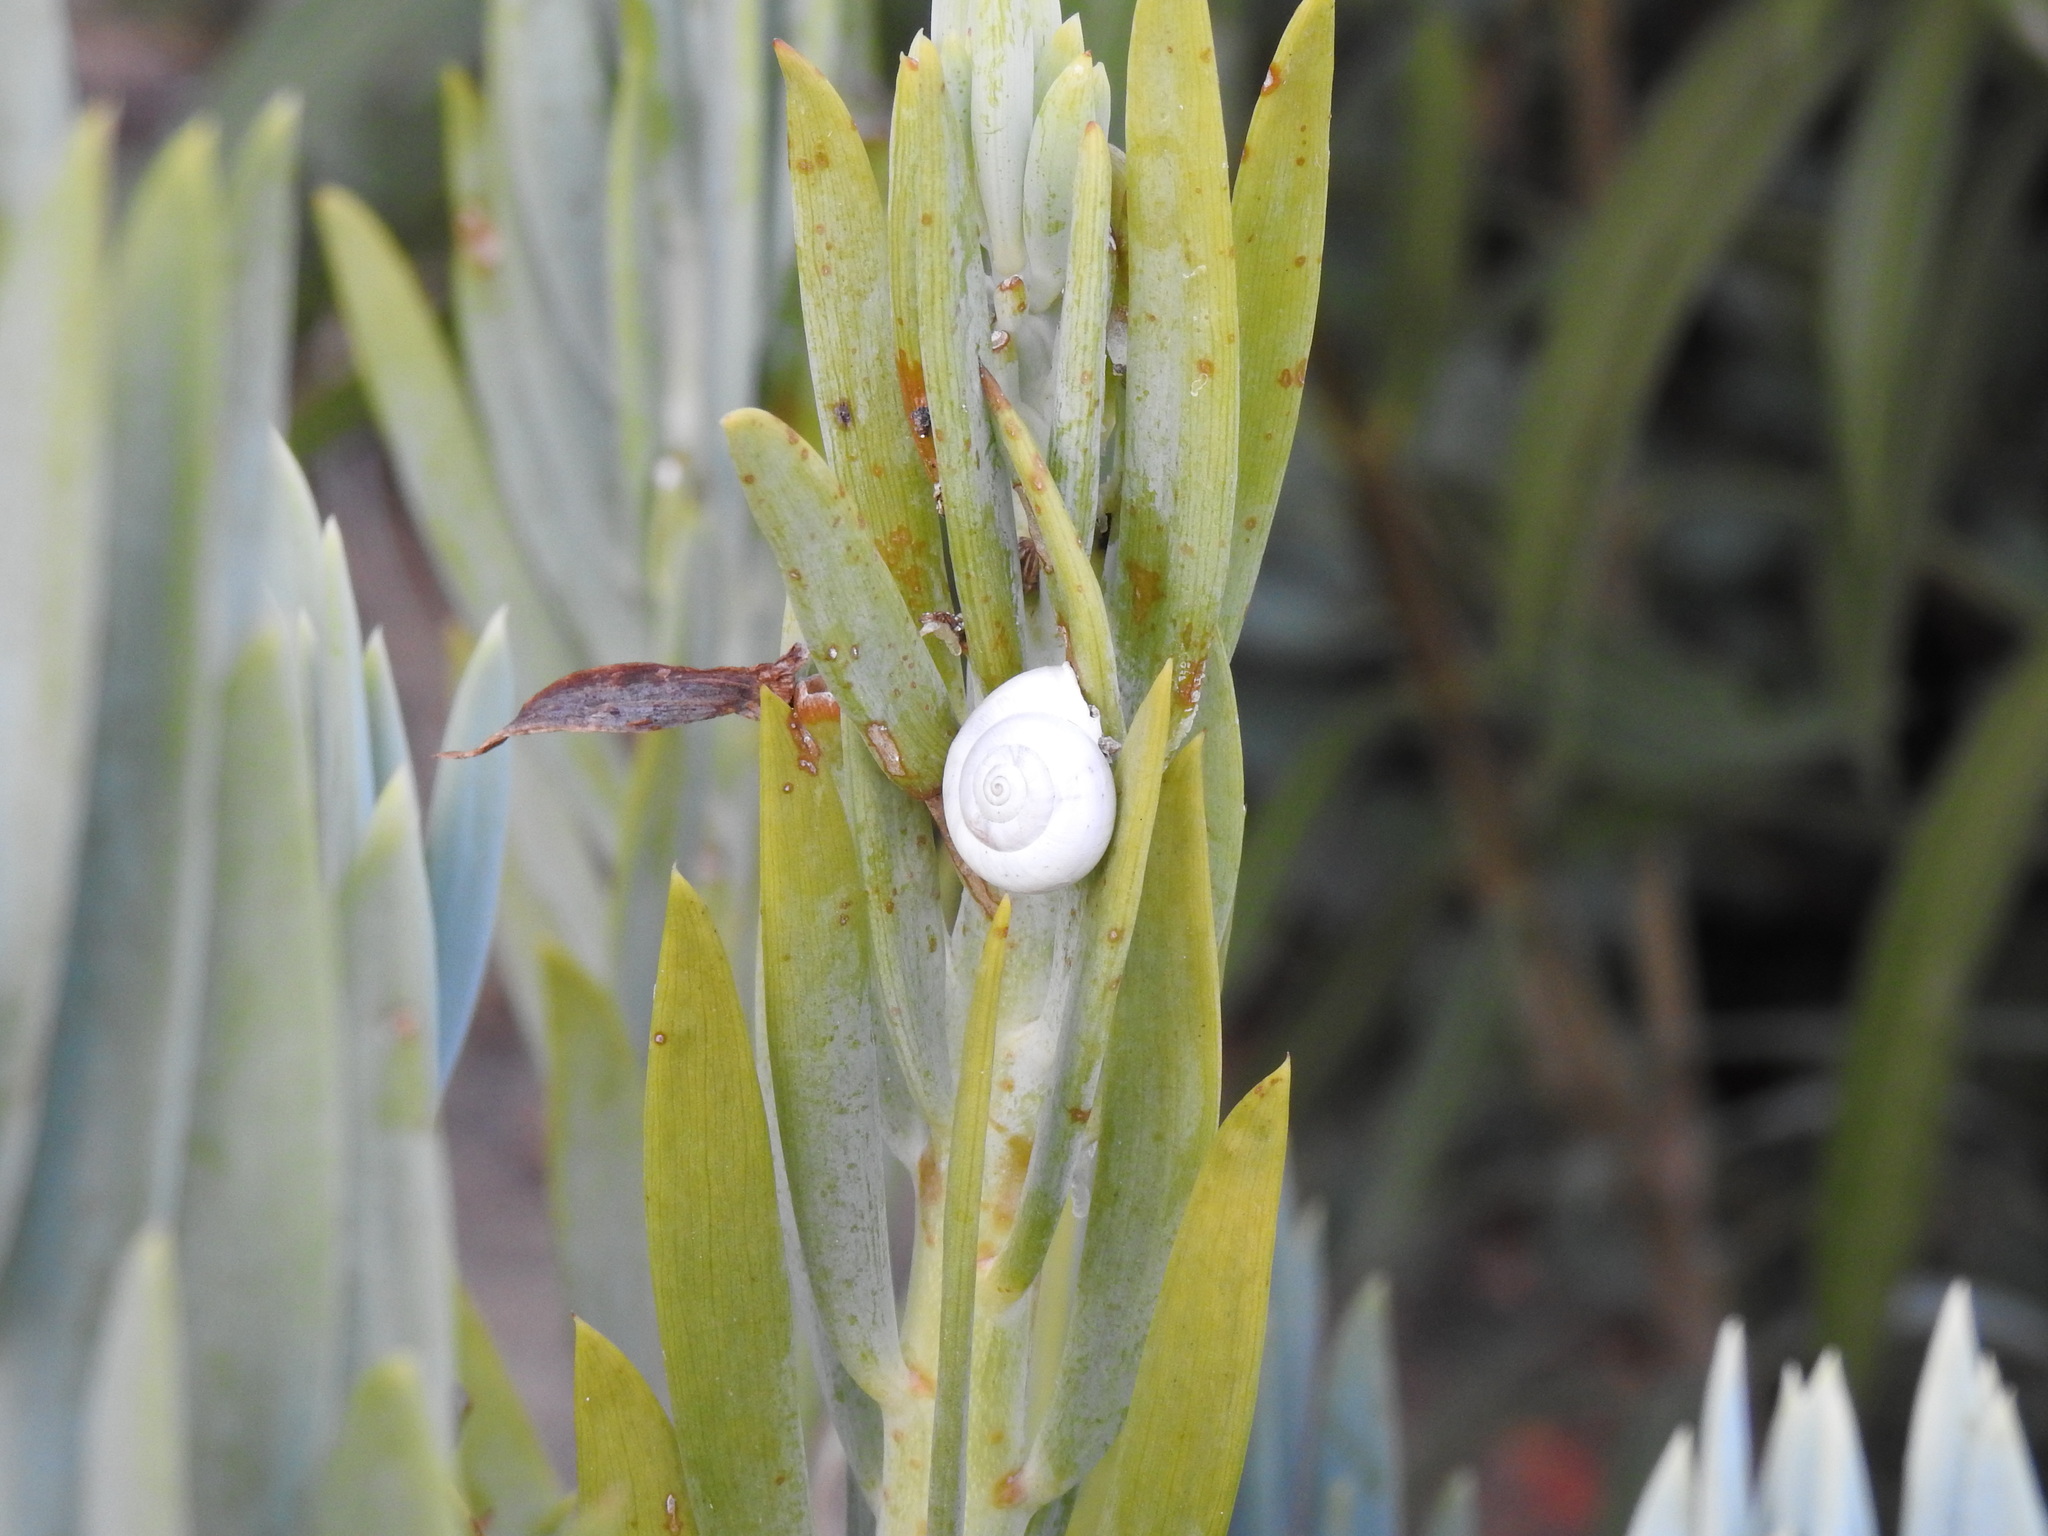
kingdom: Animalia
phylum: Mollusca
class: Gastropoda
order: Stylommatophora
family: Helicidae
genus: Theba
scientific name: Theba pisana
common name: White snail
